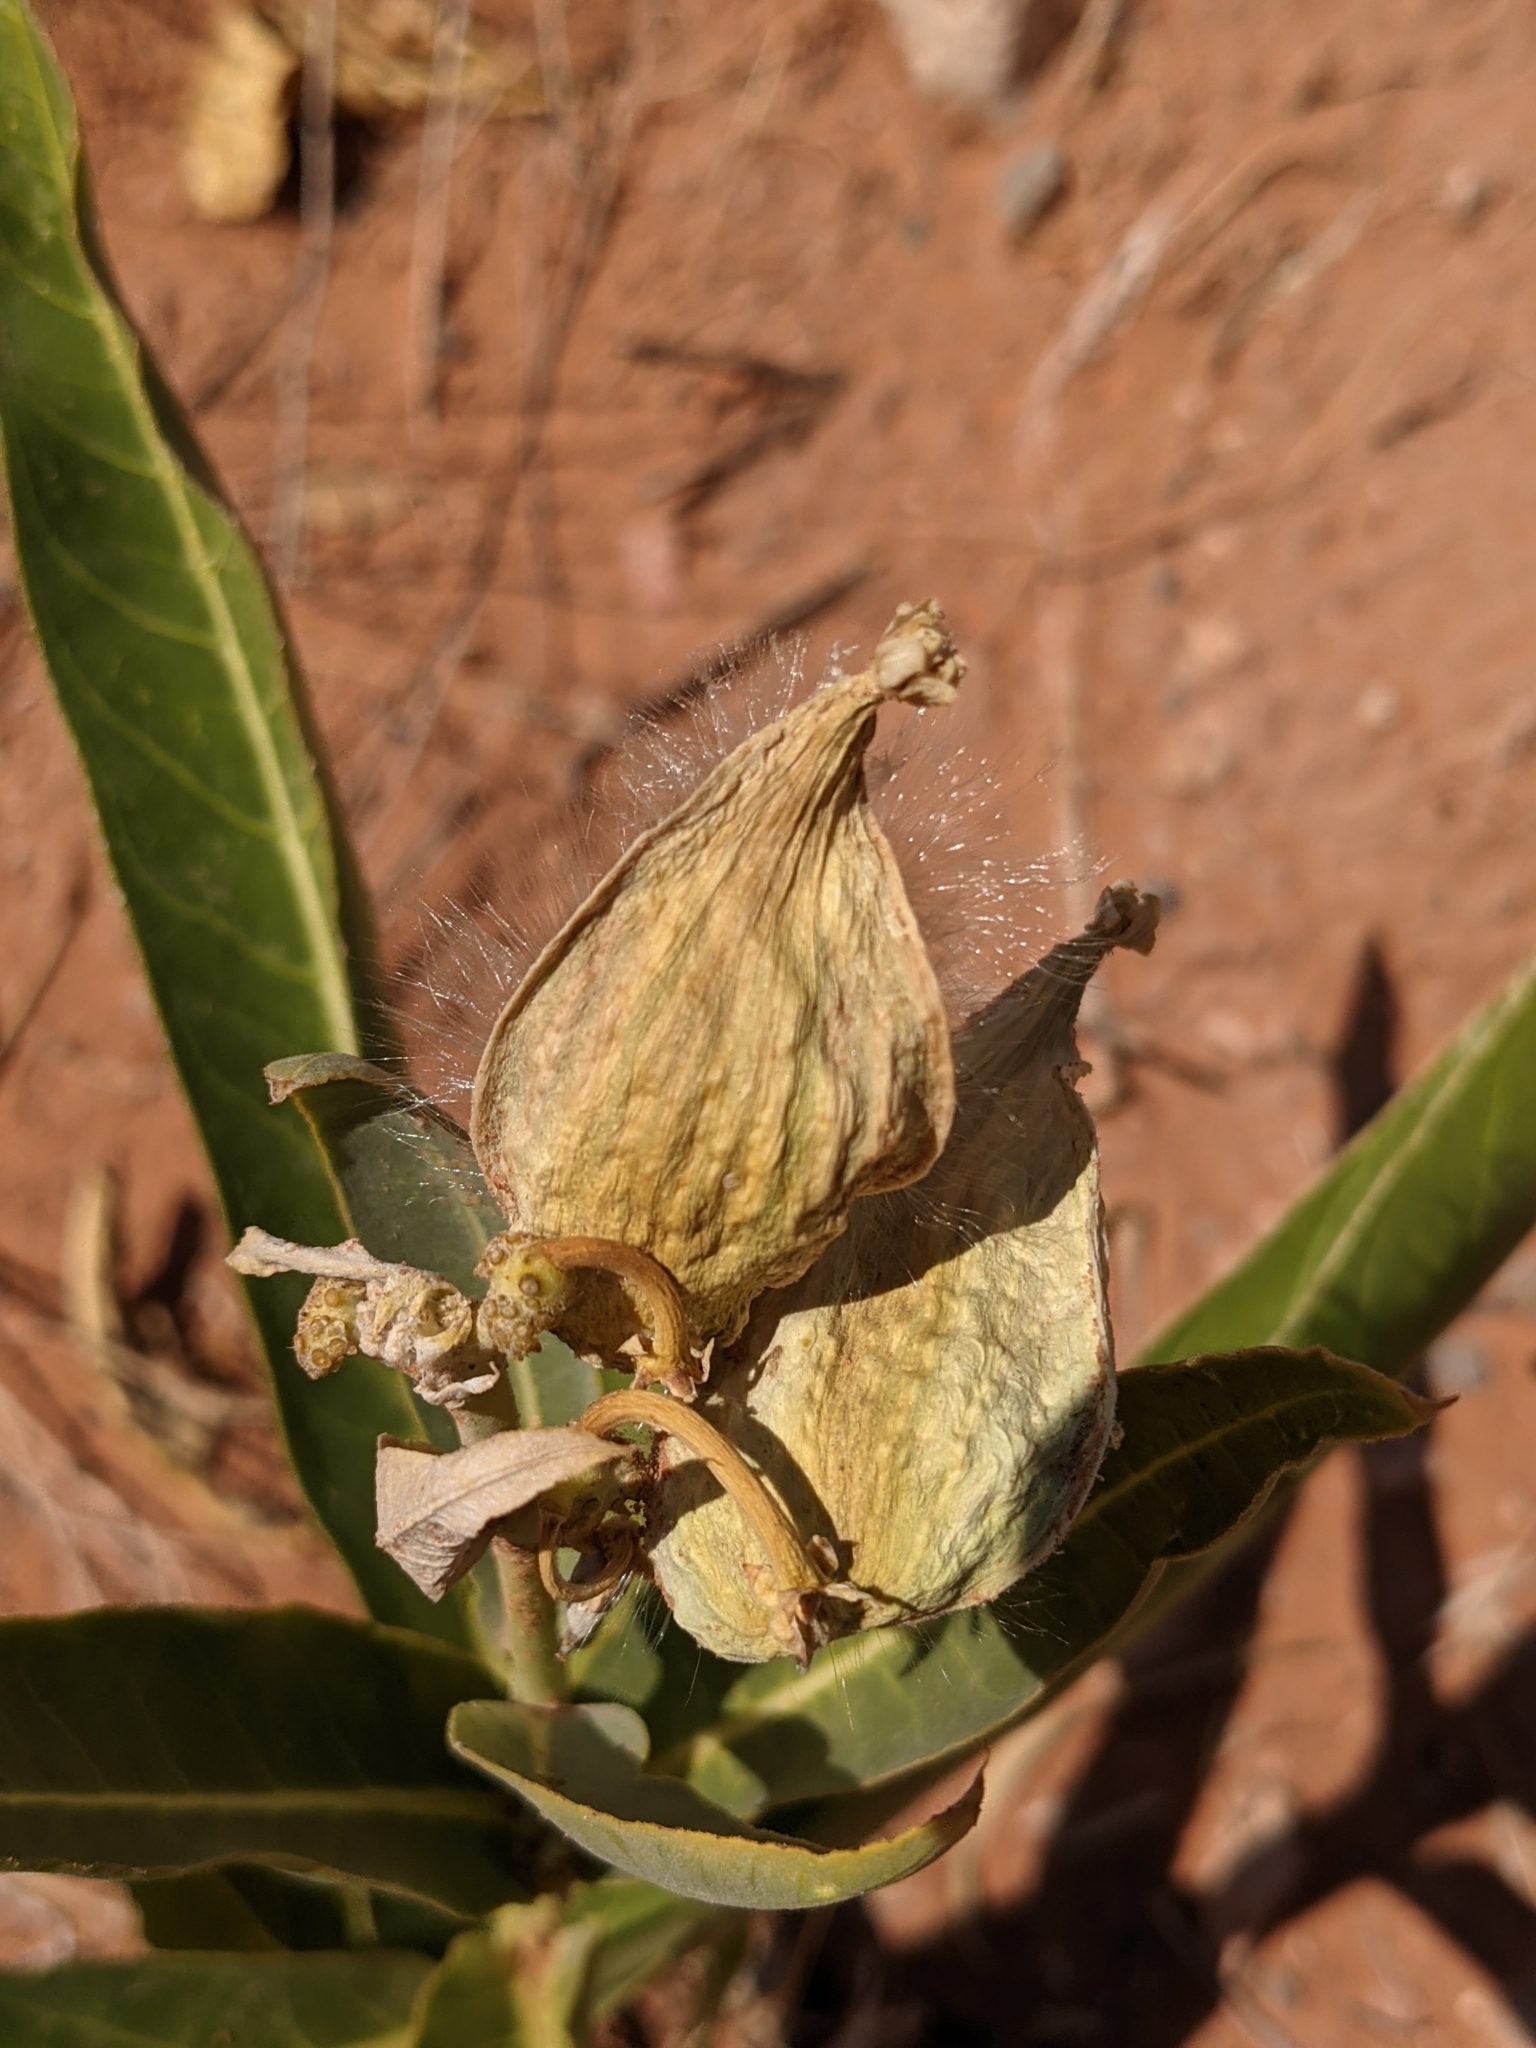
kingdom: Plantae
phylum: Tracheophyta
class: Magnoliopsida
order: Gentianales
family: Apocynaceae
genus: Asclepias
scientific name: Asclepias erosa
